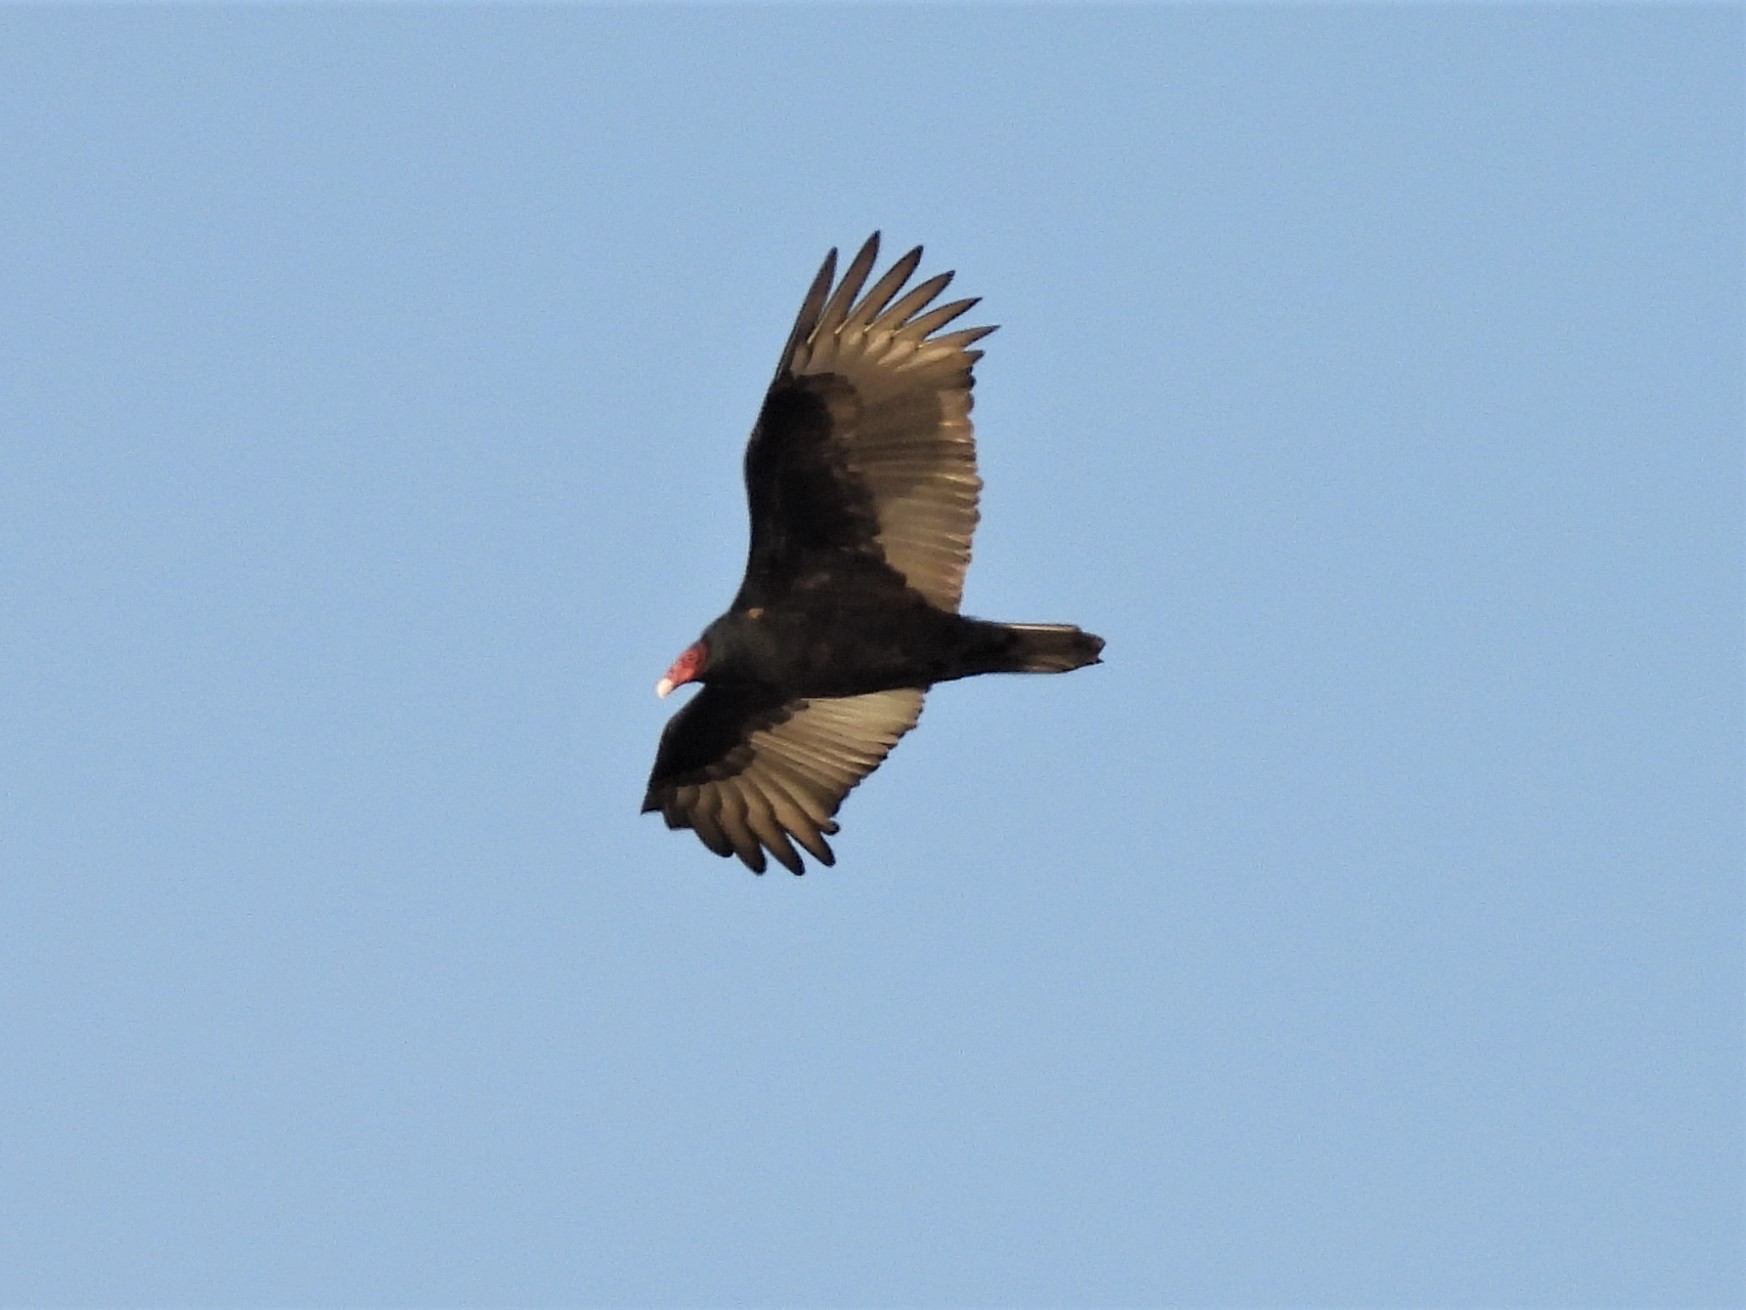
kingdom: Animalia
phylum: Chordata
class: Aves
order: Accipitriformes
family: Cathartidae
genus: Cathartes
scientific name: Cathartes aura
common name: Turkey vulture
